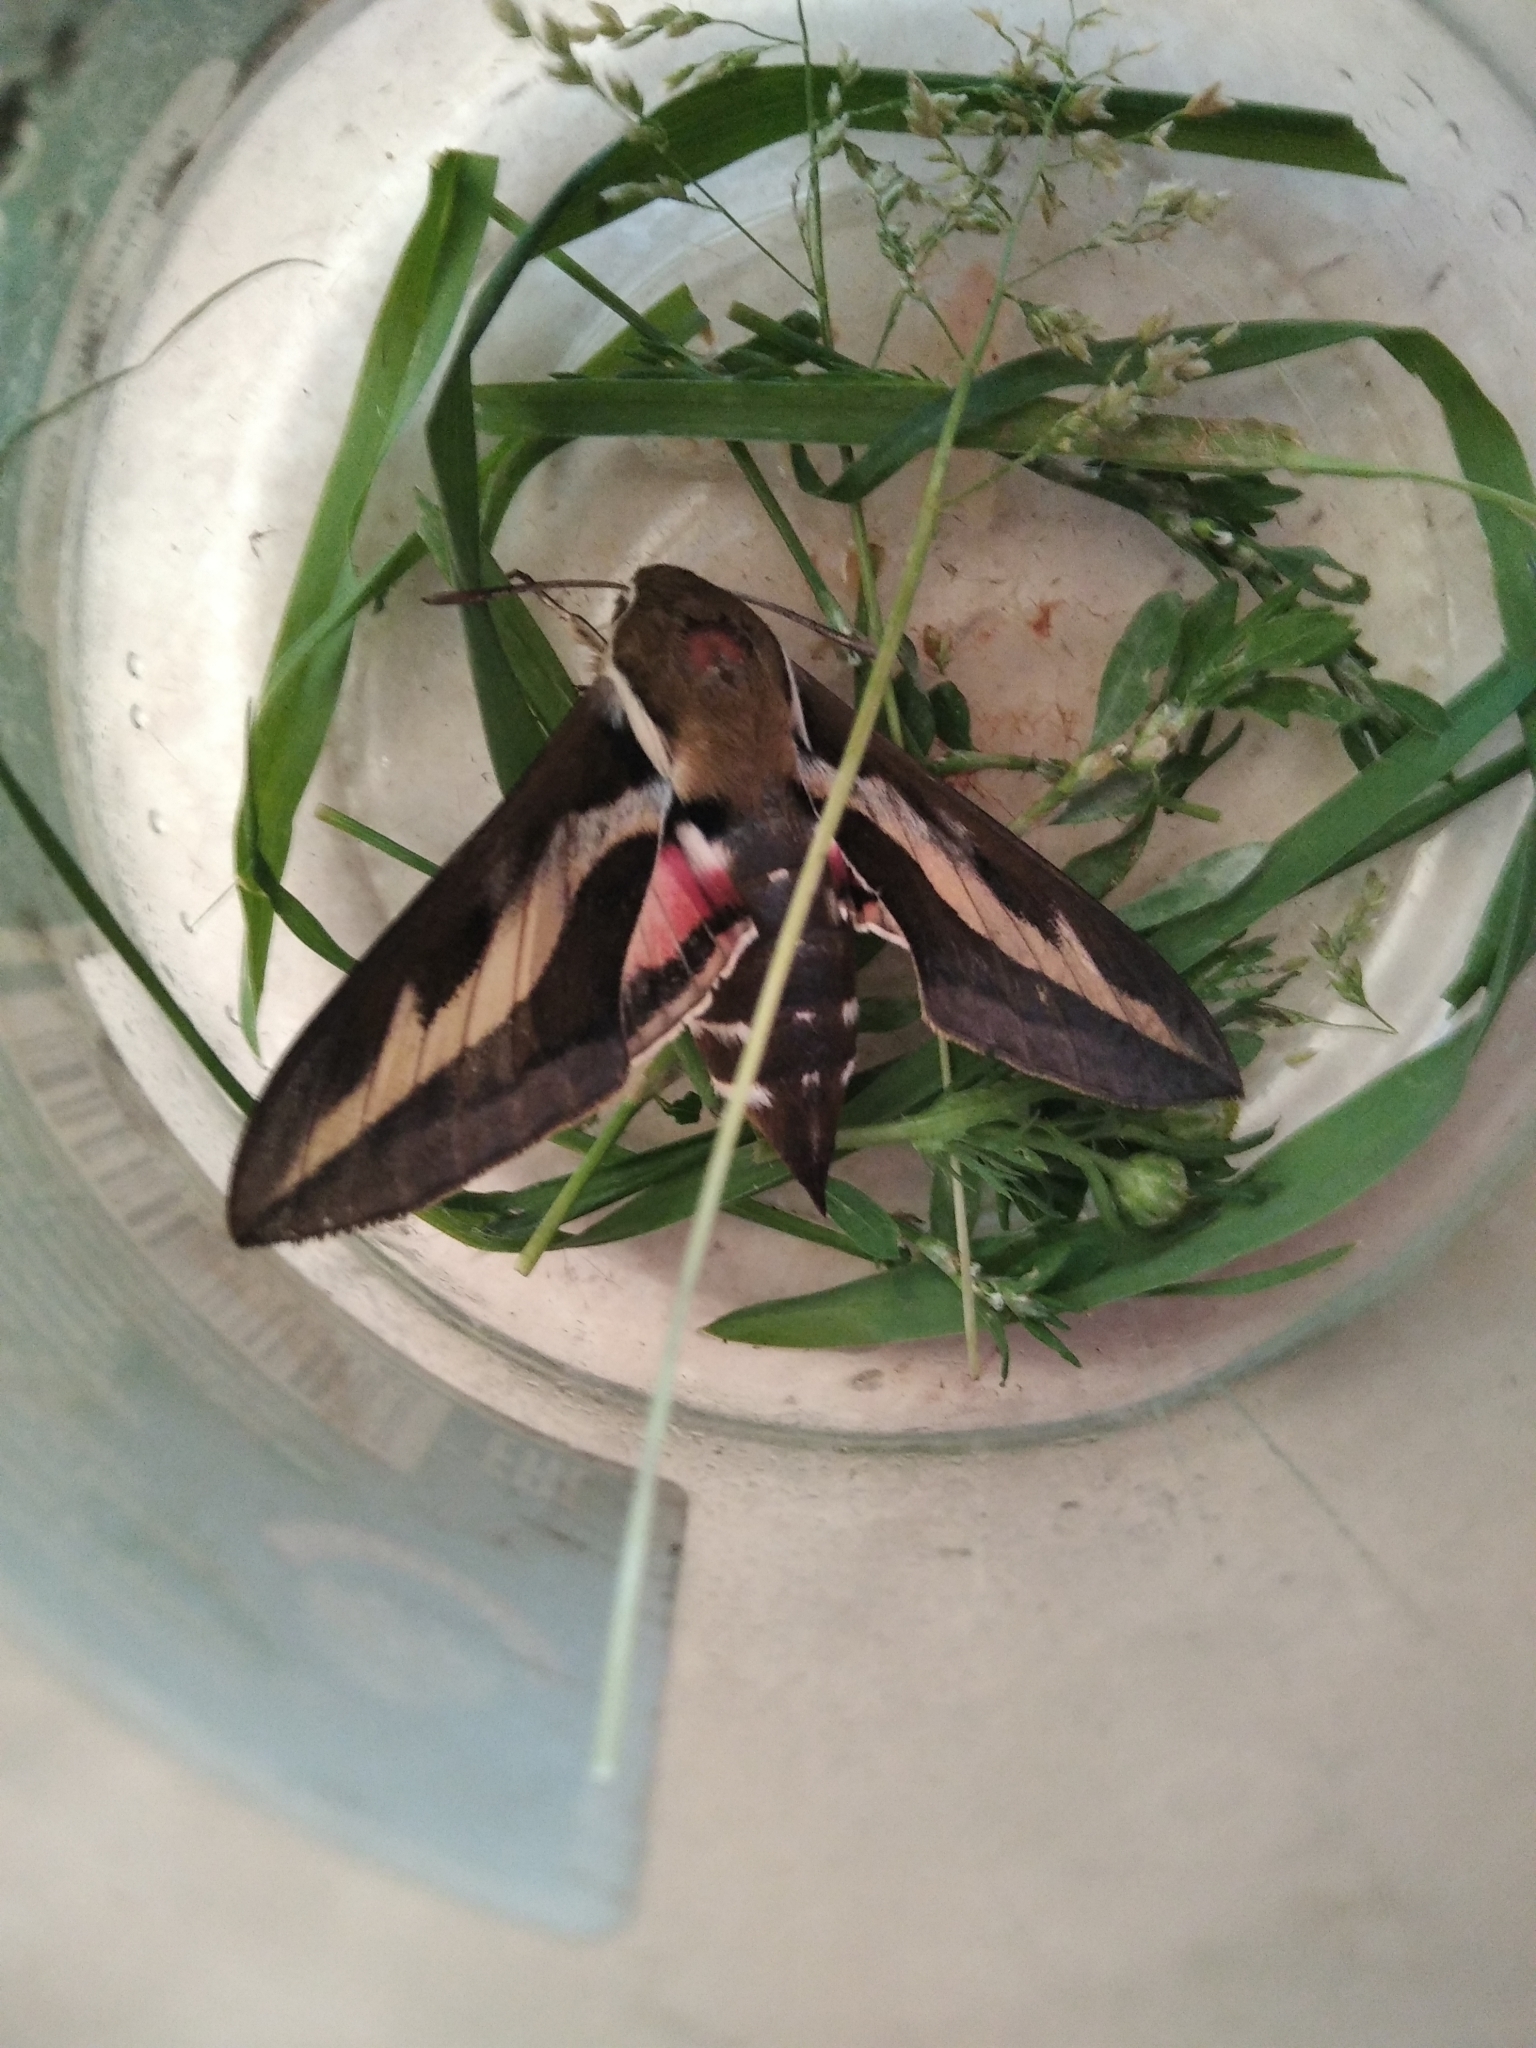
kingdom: Animalia
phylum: Arthropoda
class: Insecta
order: Lepidoptera
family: Sphingidae
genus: Hyles
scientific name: Hyles gallii
